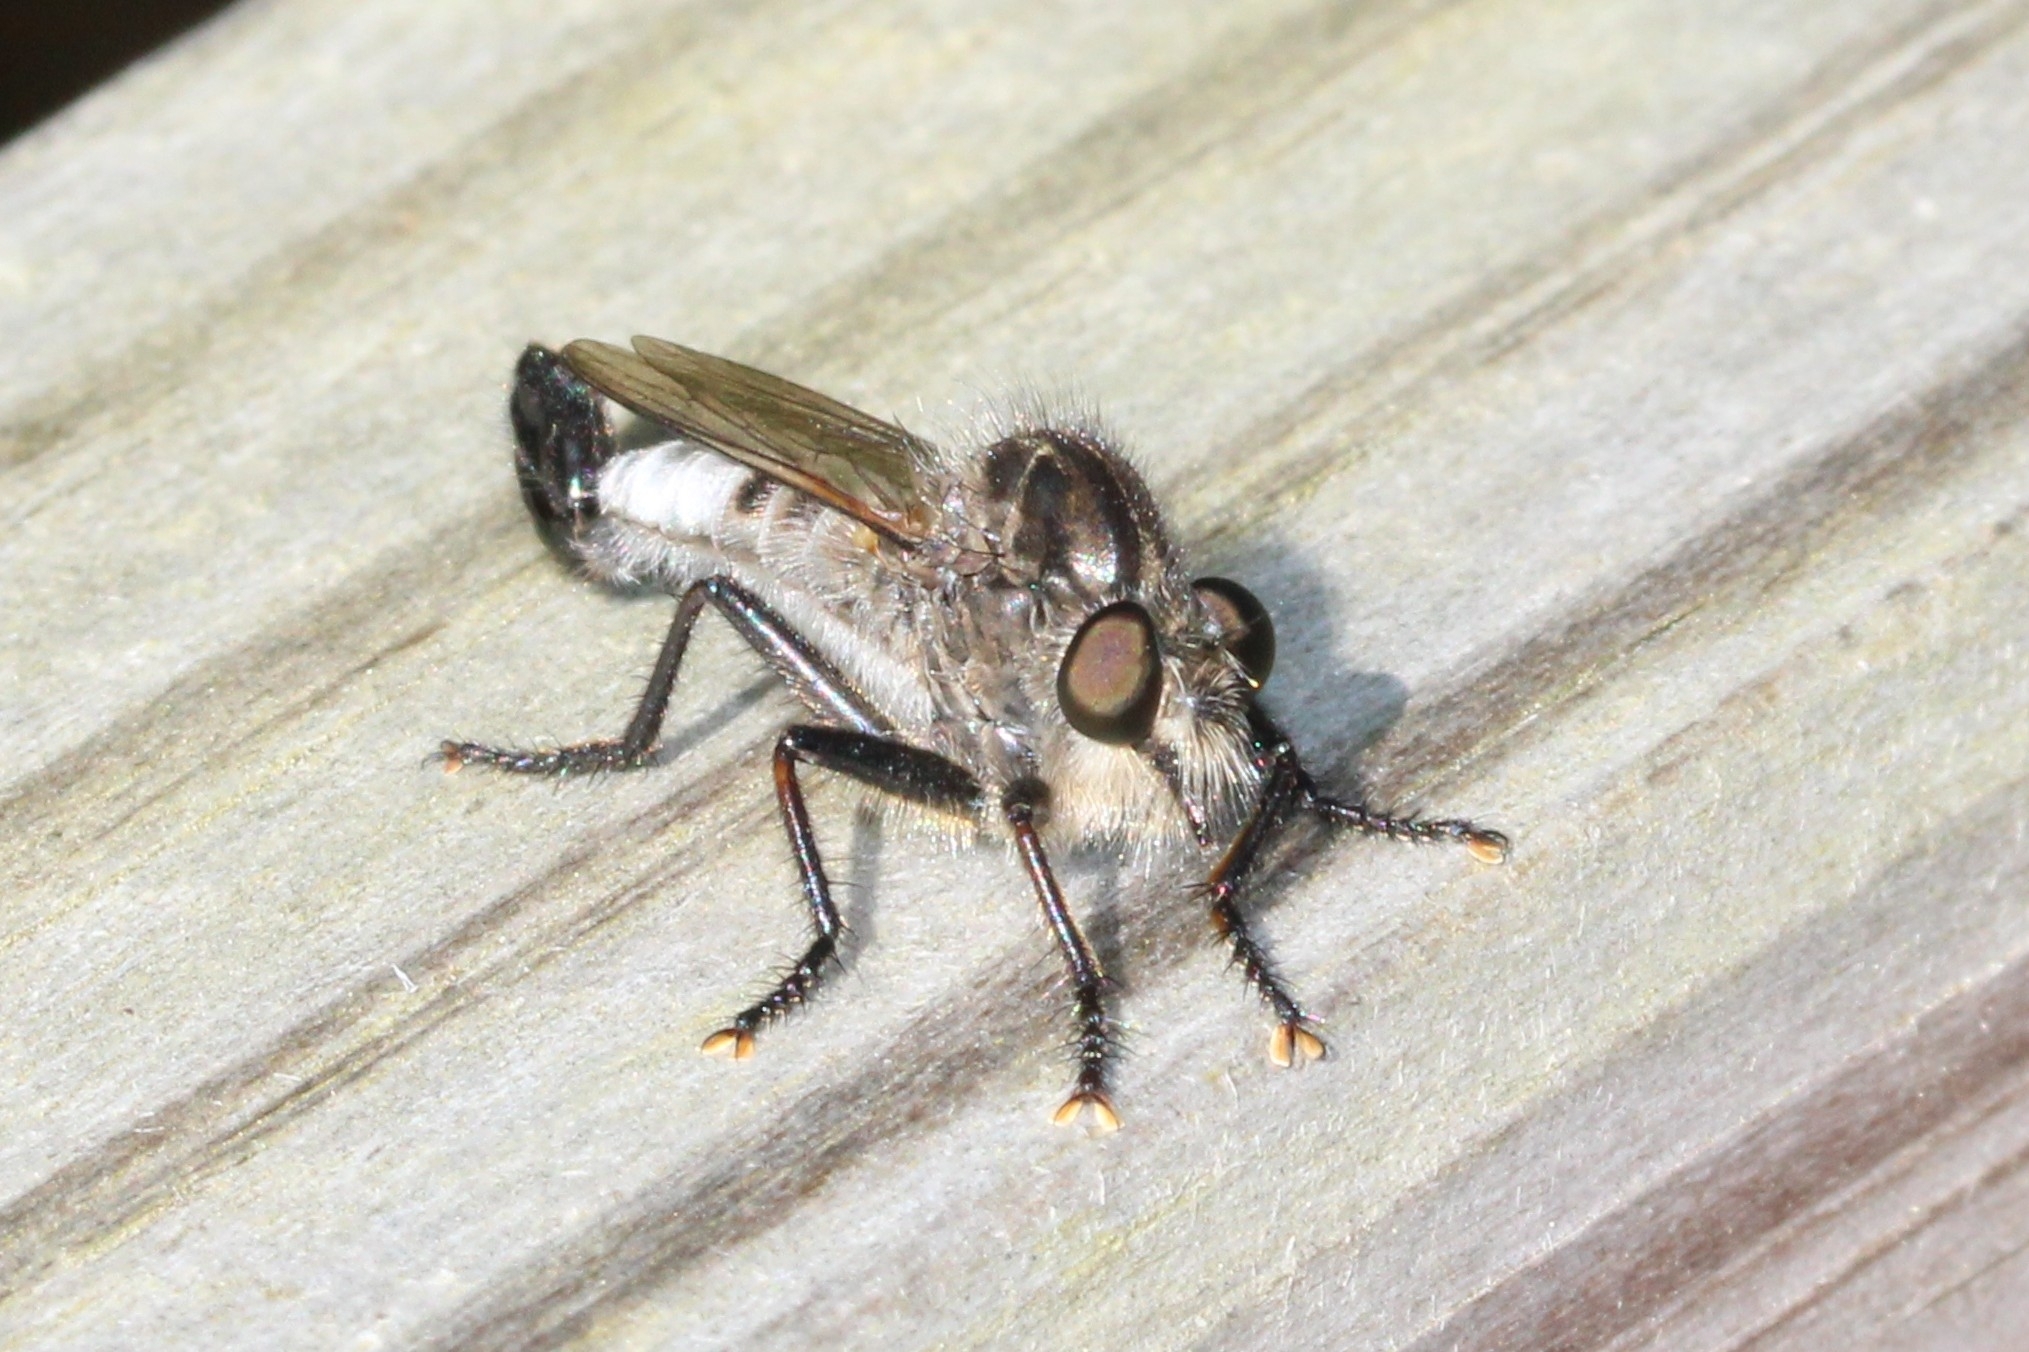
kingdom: Animalia
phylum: Arthropoda
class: Insecta
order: Diptera
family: Asilidae
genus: Efferia
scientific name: Efferia aestuans
